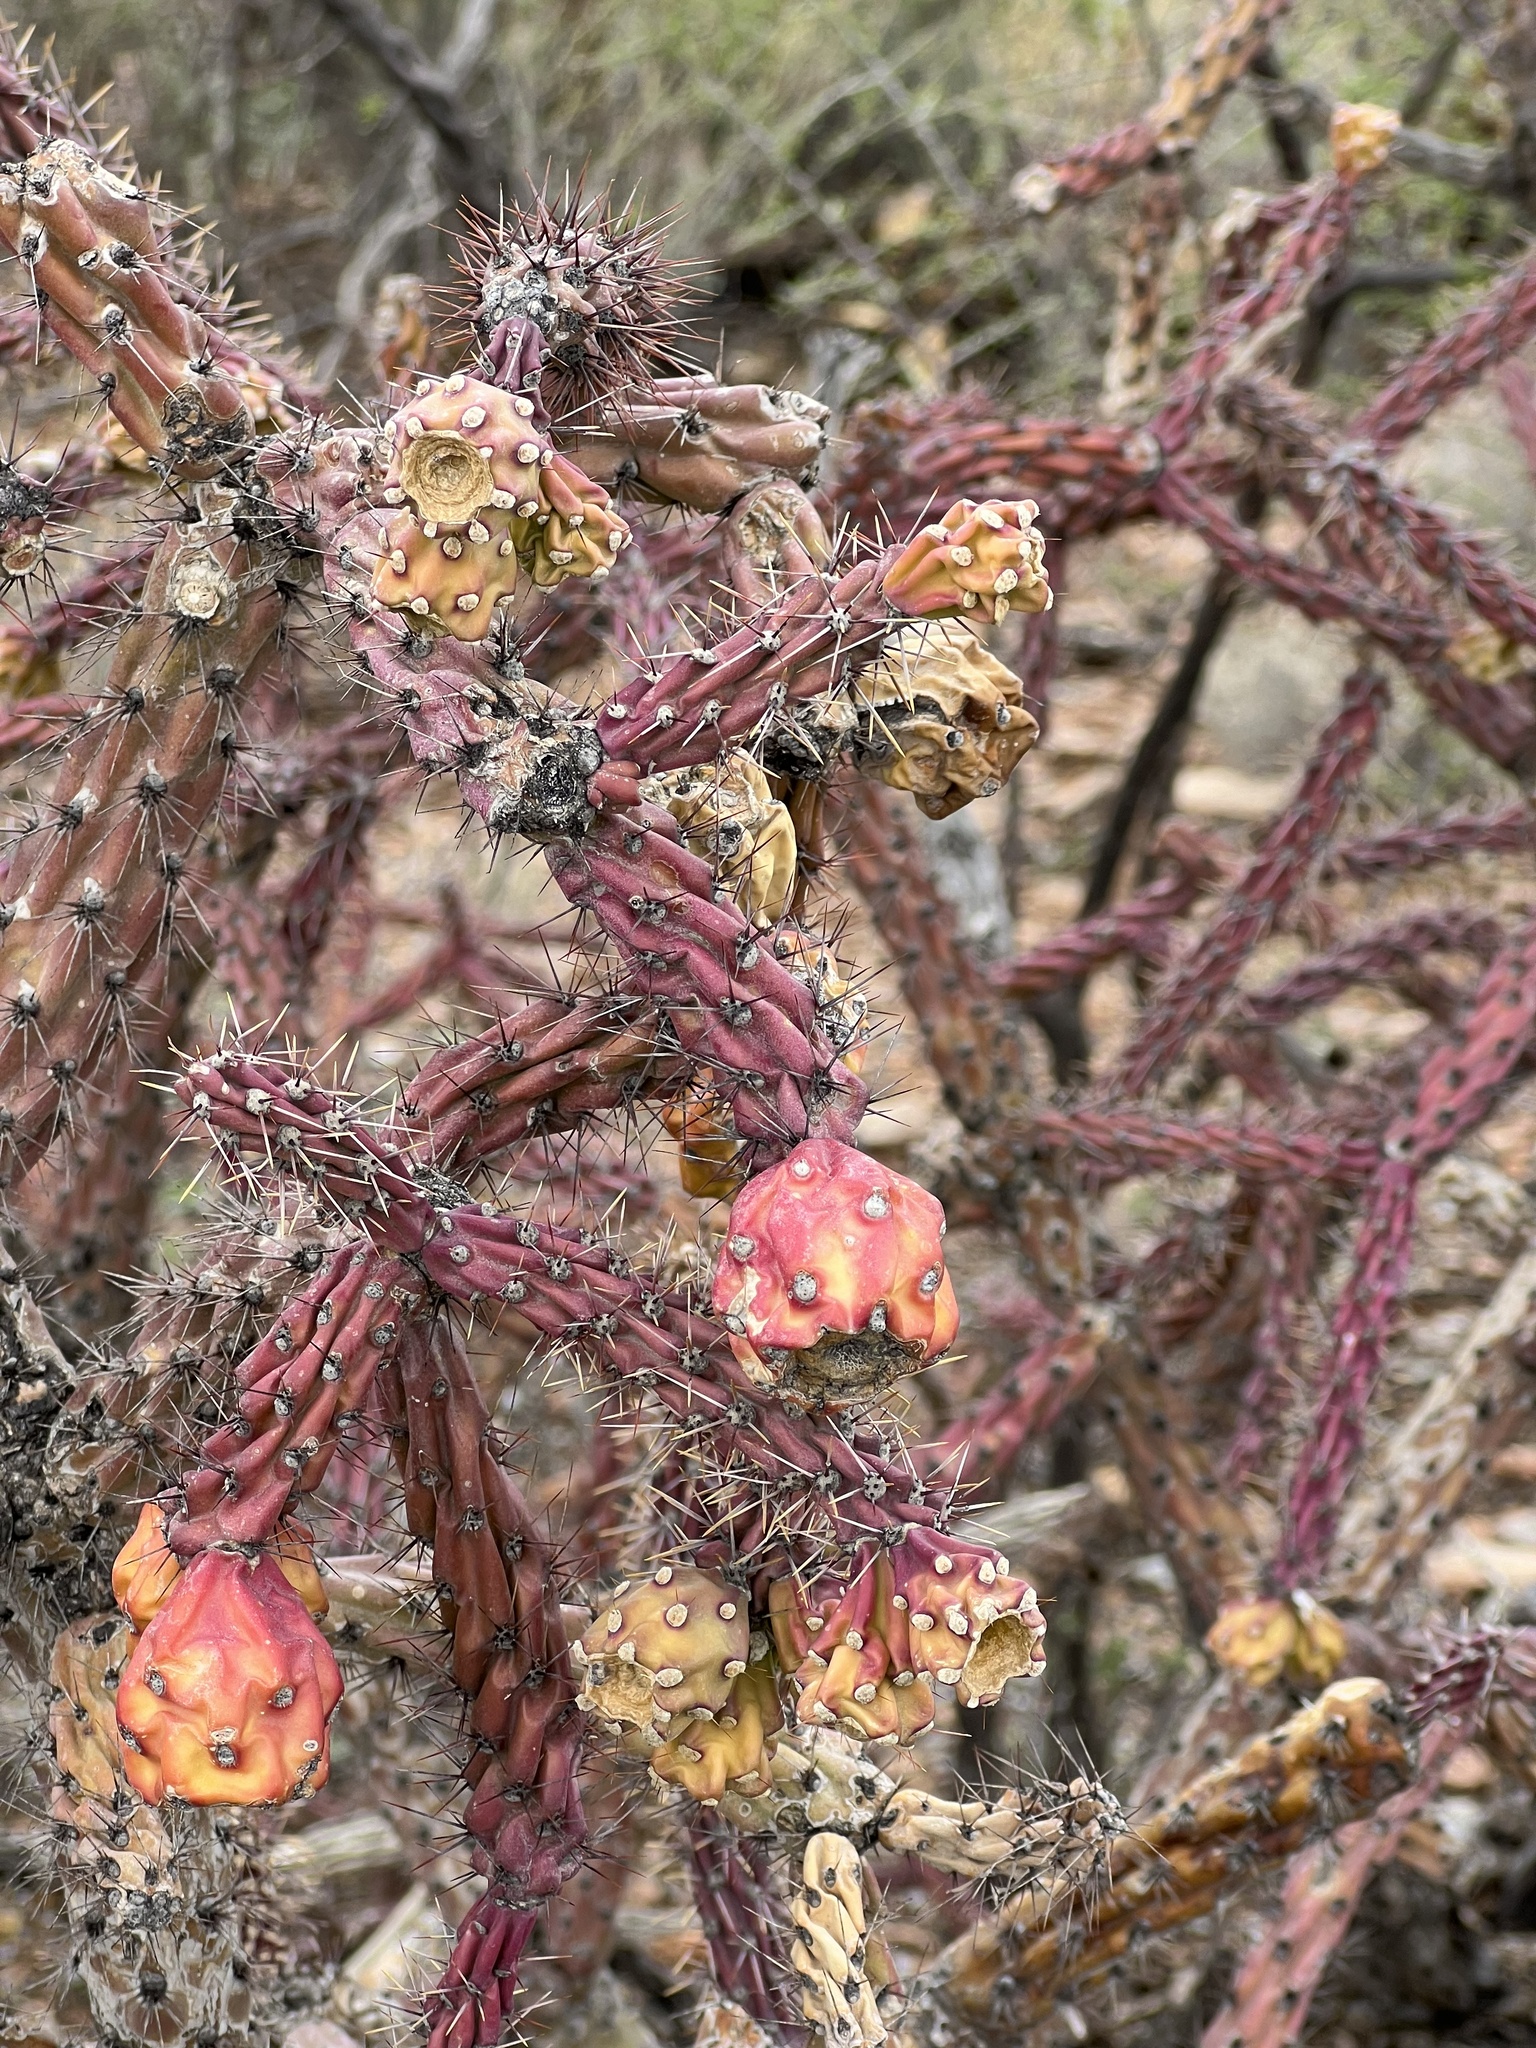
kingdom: Plantae
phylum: Tracheophyta
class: Magnoliopsida
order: Caryophyllales
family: Cactaceae
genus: Cylindropuntia
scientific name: Cylindropuntia thurberi
